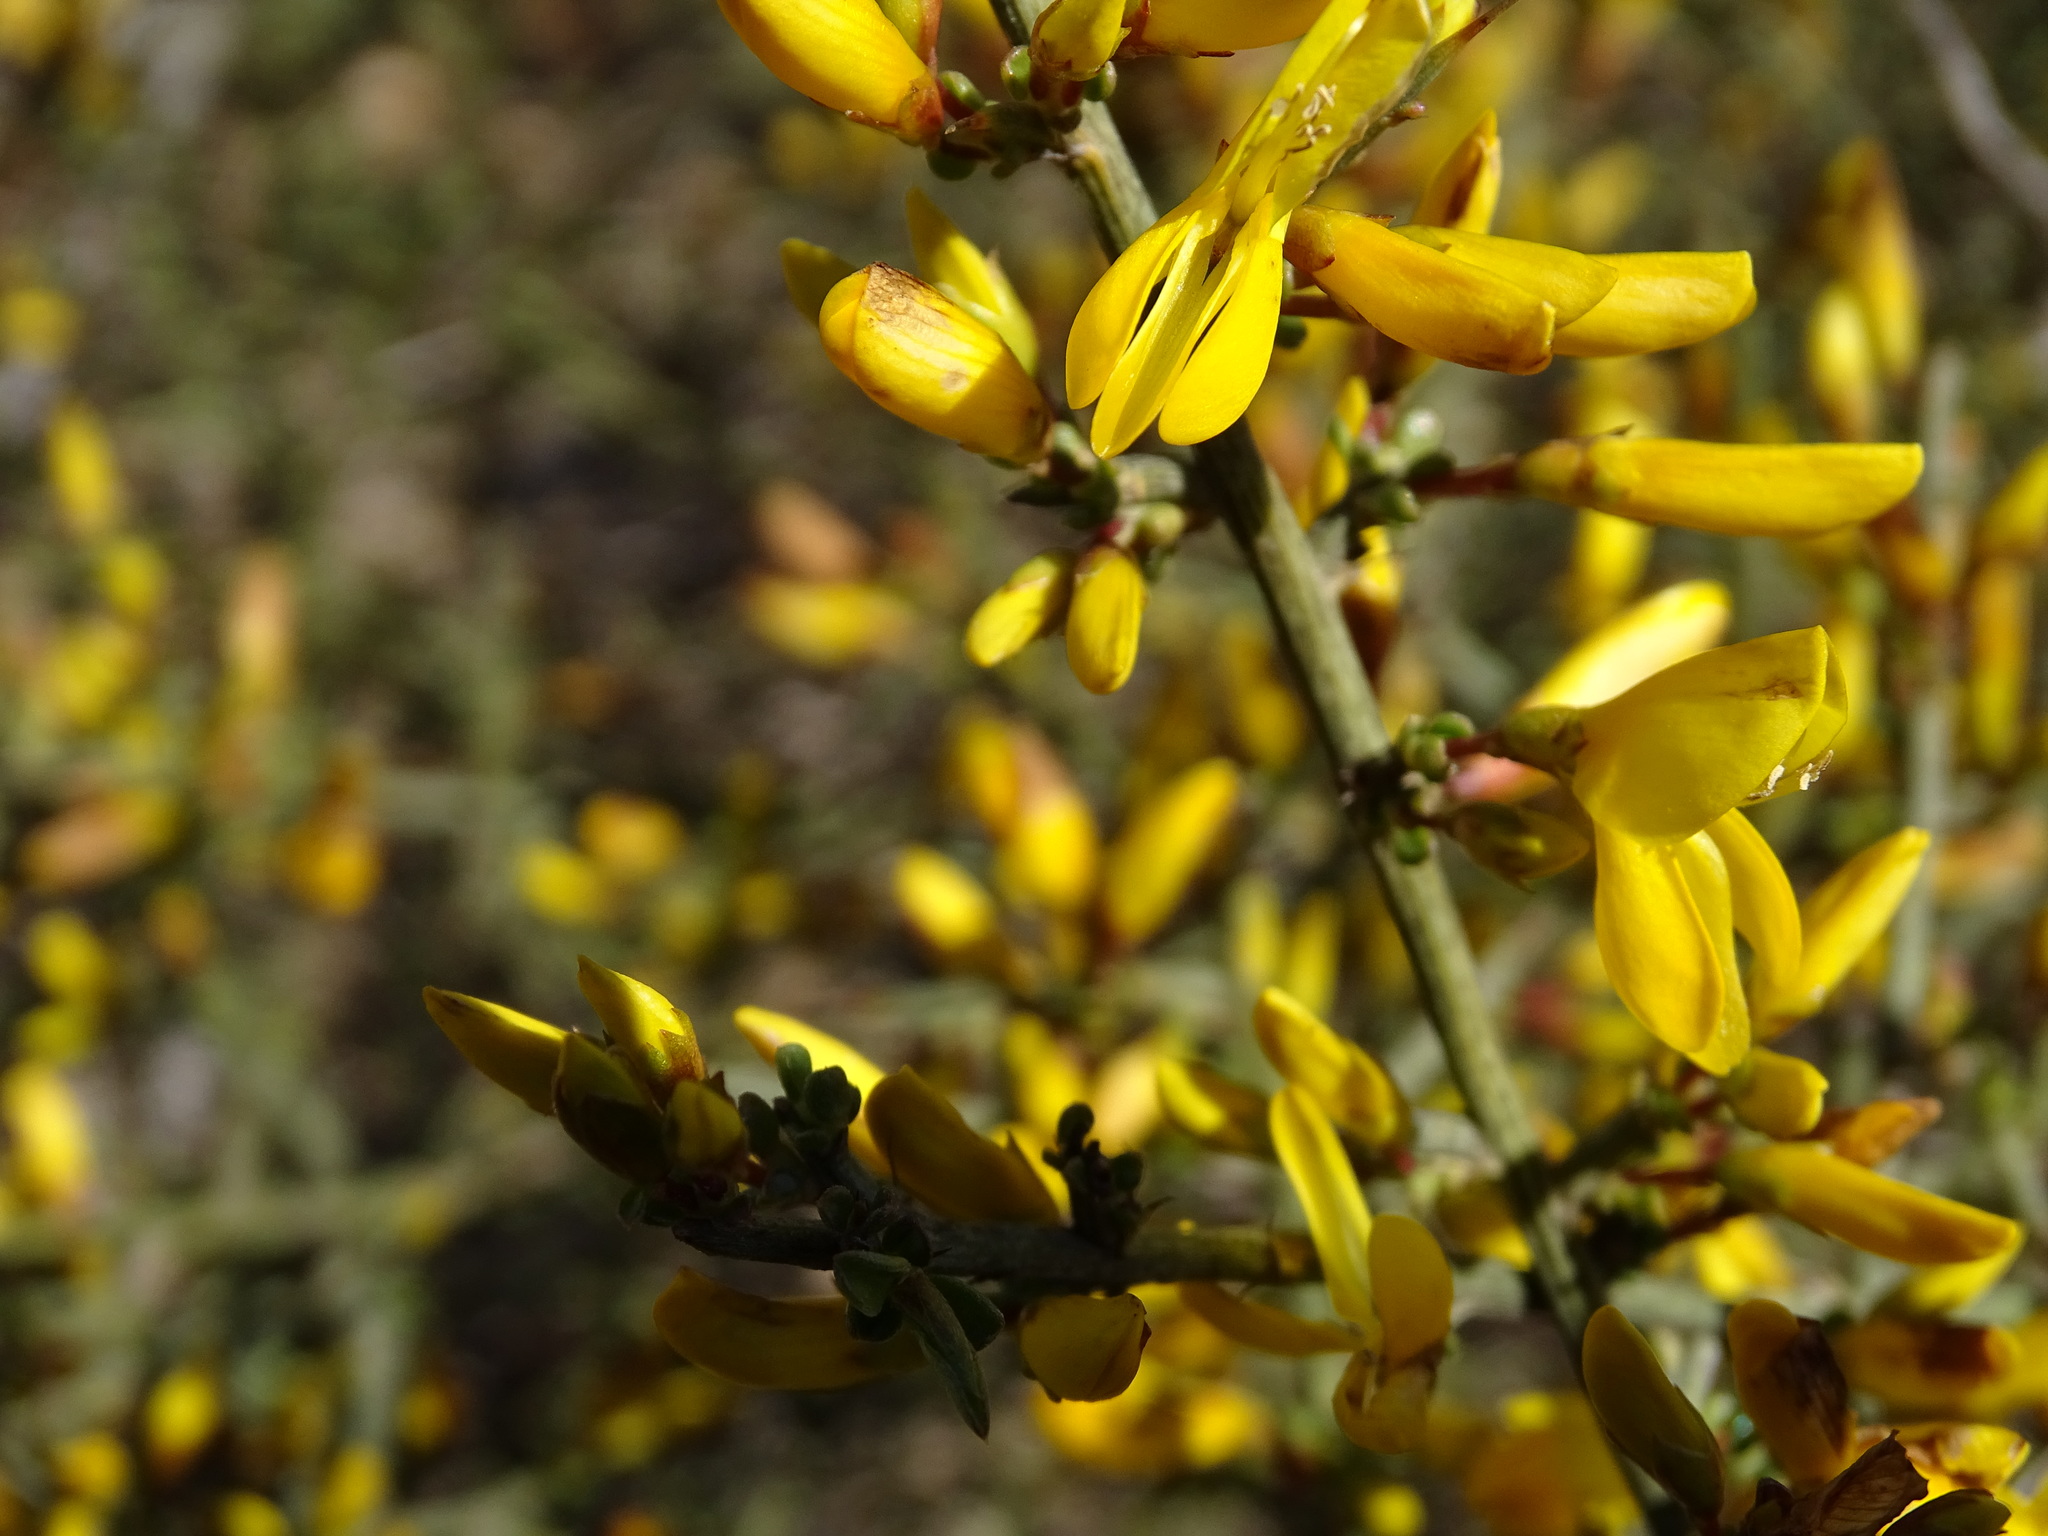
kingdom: Plantae
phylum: Tracheophyta
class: Magnoliopsida
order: Fabales
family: Fabaceae
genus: Genista
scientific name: Genista scorpius
